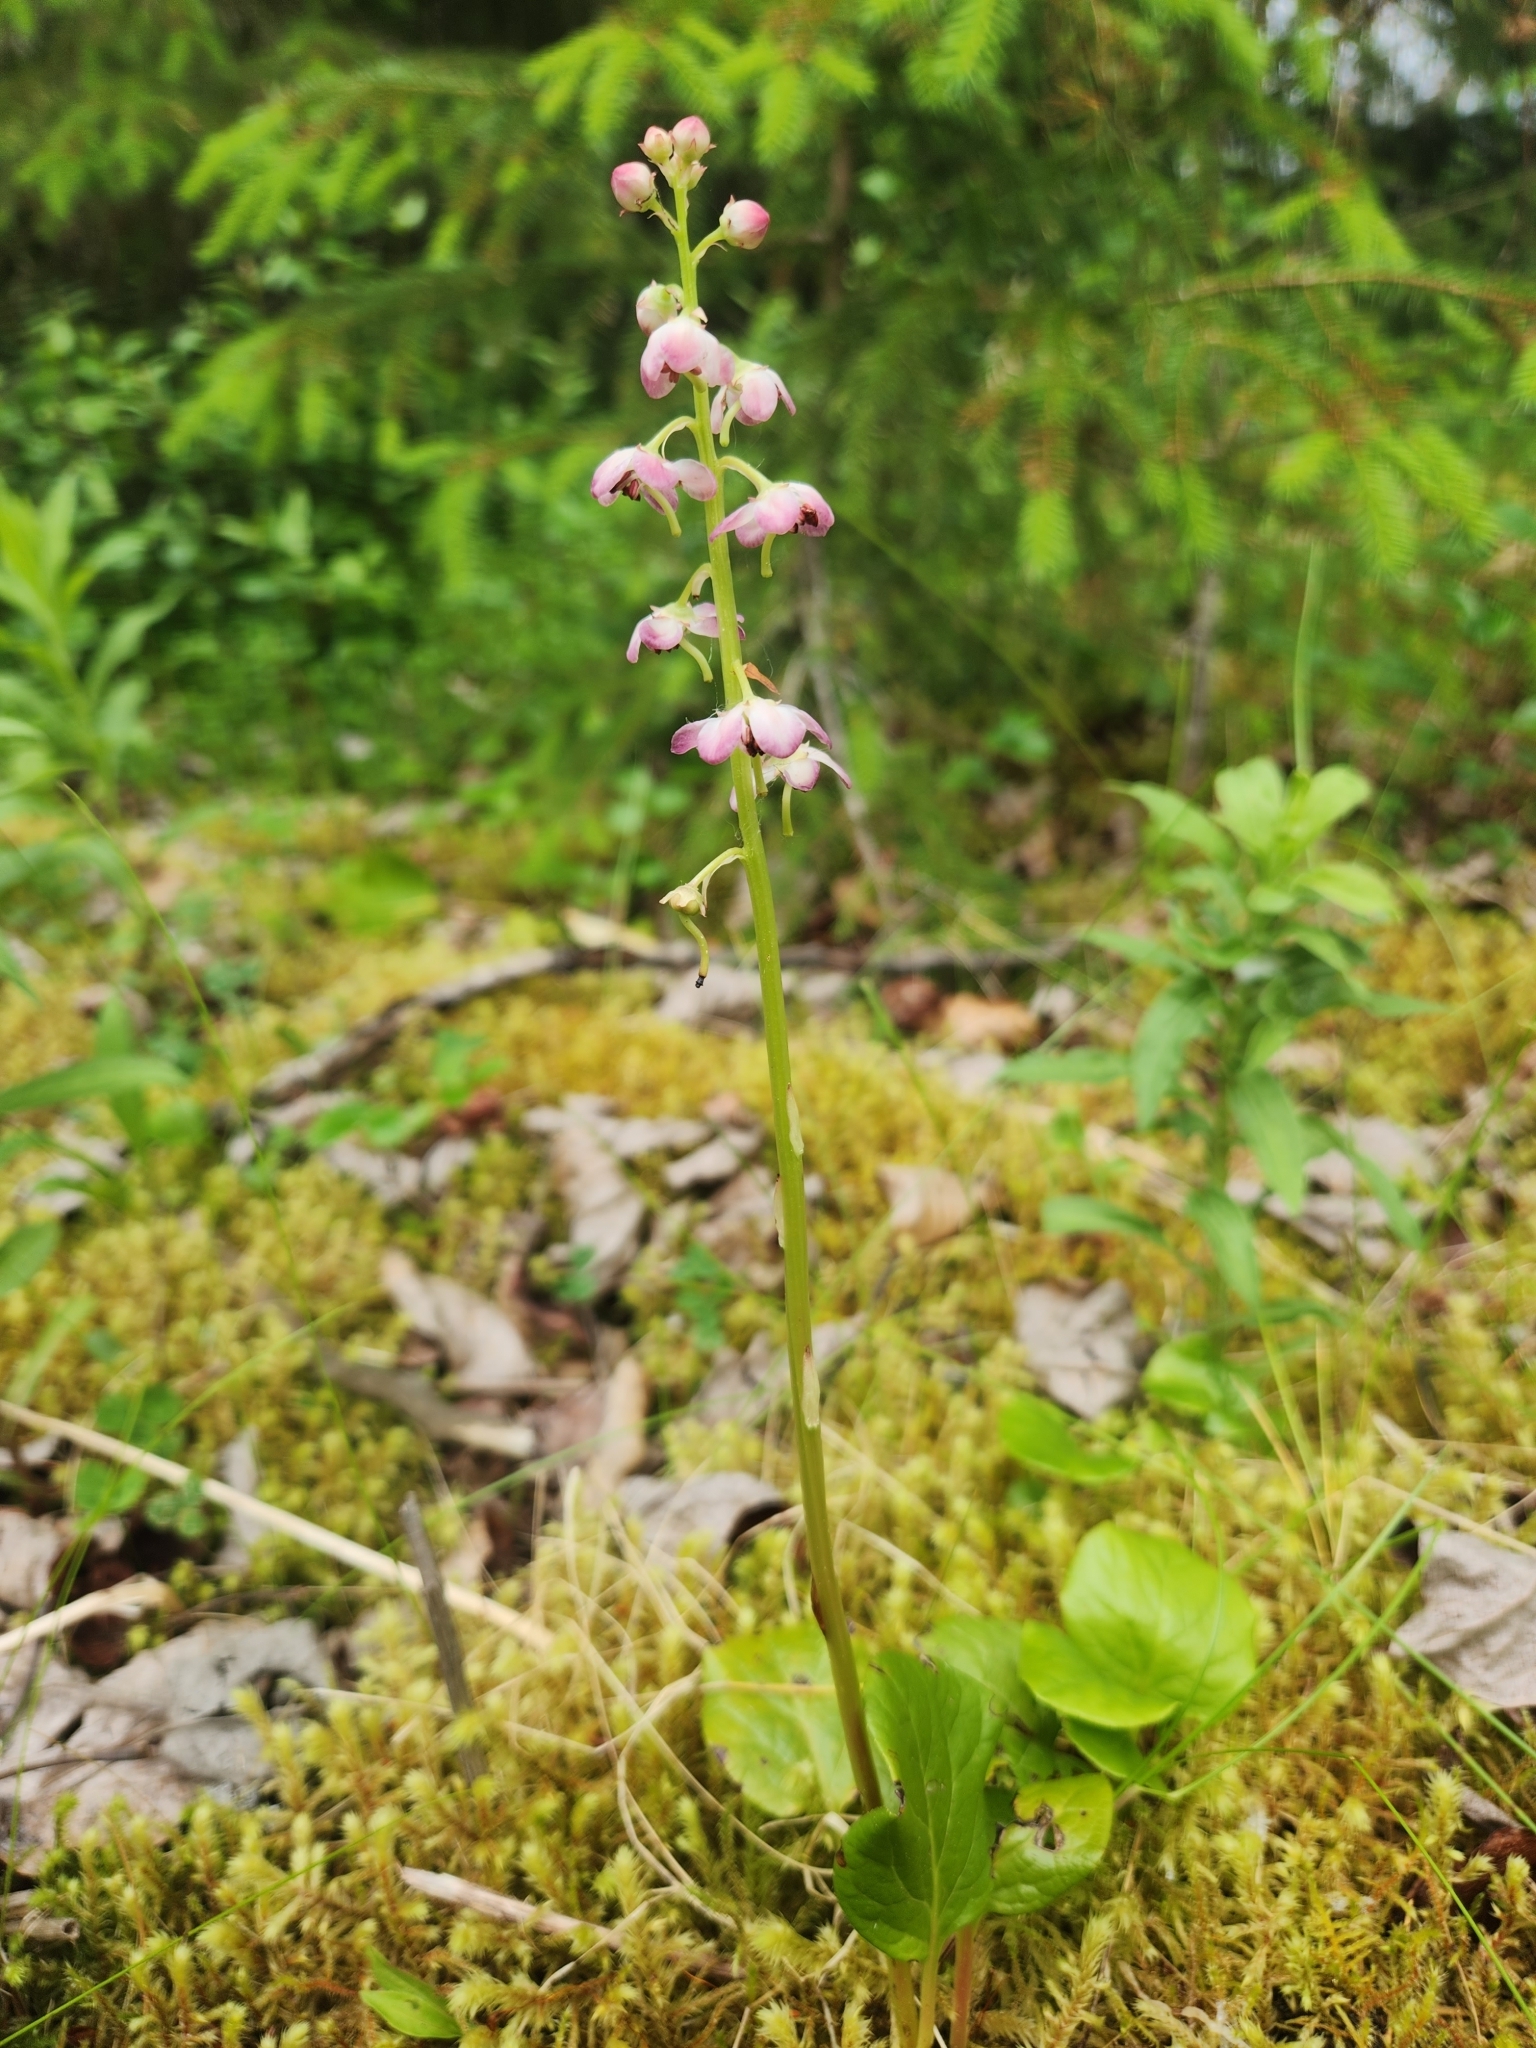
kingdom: Plantae
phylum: Tracheophyta
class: Magnoliopsida
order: Ericales
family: Ericaceae
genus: Pyrola
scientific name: Pyrola asarifolia
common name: Bog wintergreen
